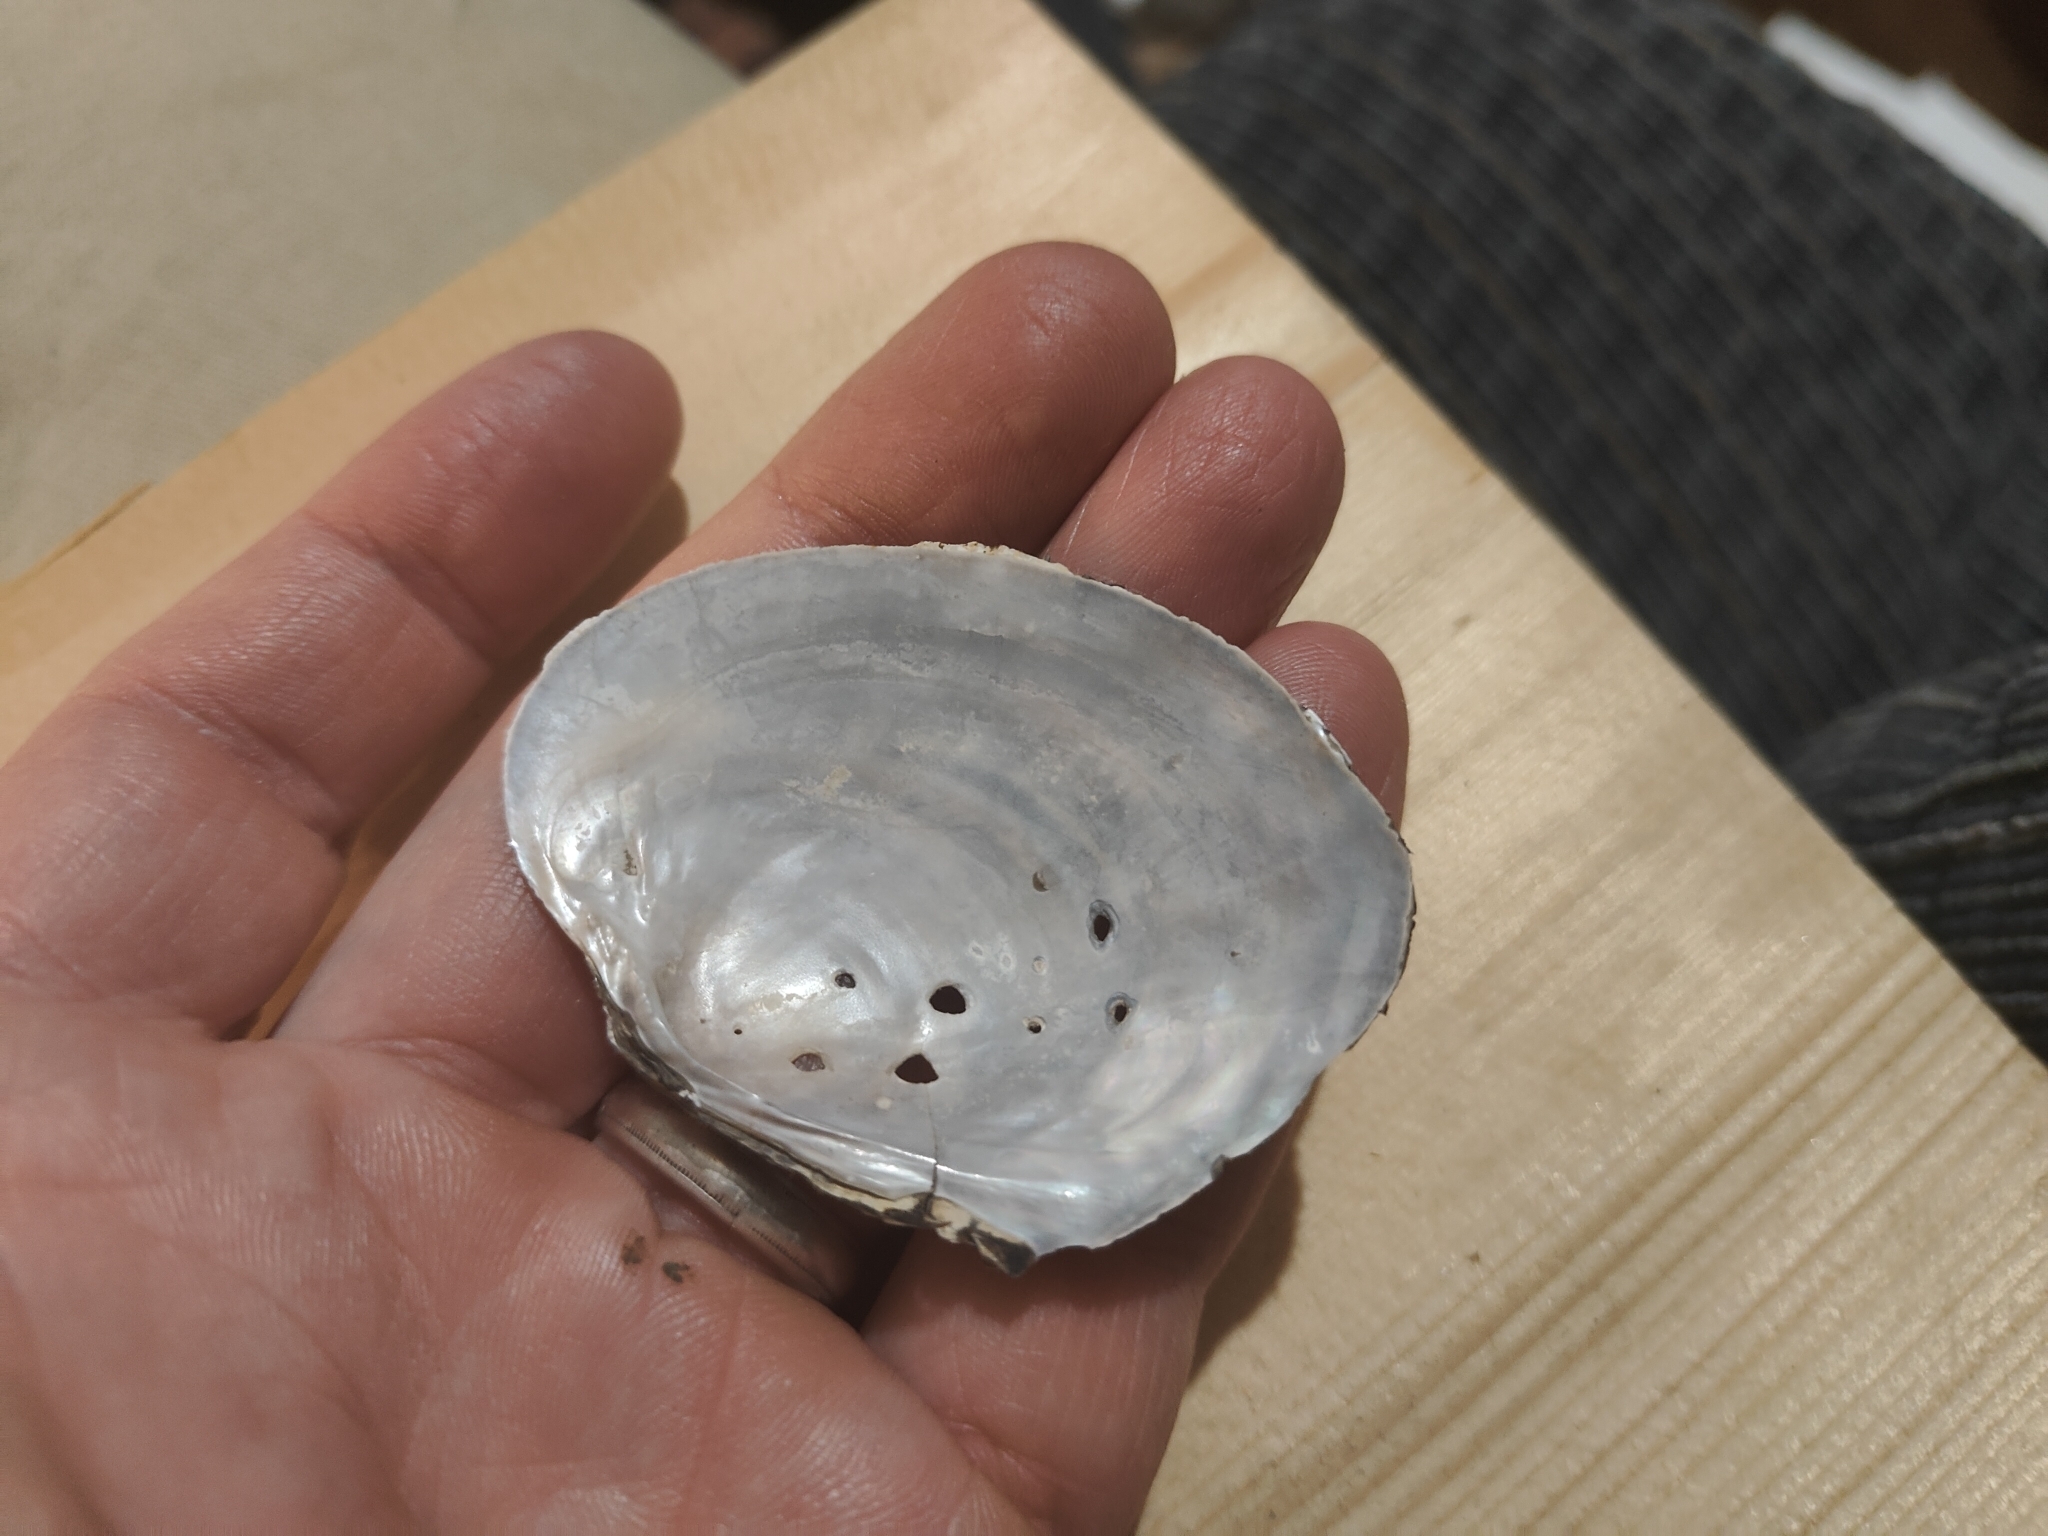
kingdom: Animalia
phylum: Mollusca
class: Bivalvia
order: Unionida
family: Unionidae
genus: Lasmigona
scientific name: Lasmigona complanata
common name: White heelsplitter
